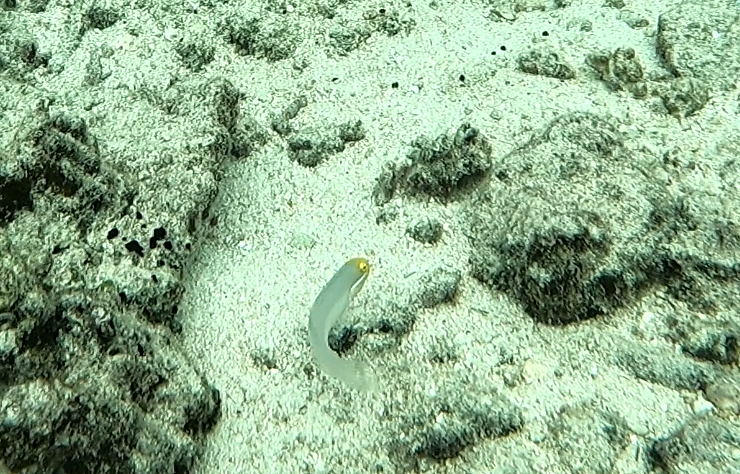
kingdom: Animalia
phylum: Chordata
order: Perciformes
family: Gobiidae
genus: Valenciennea
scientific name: Valenciennea strigata
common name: Blueband goby
